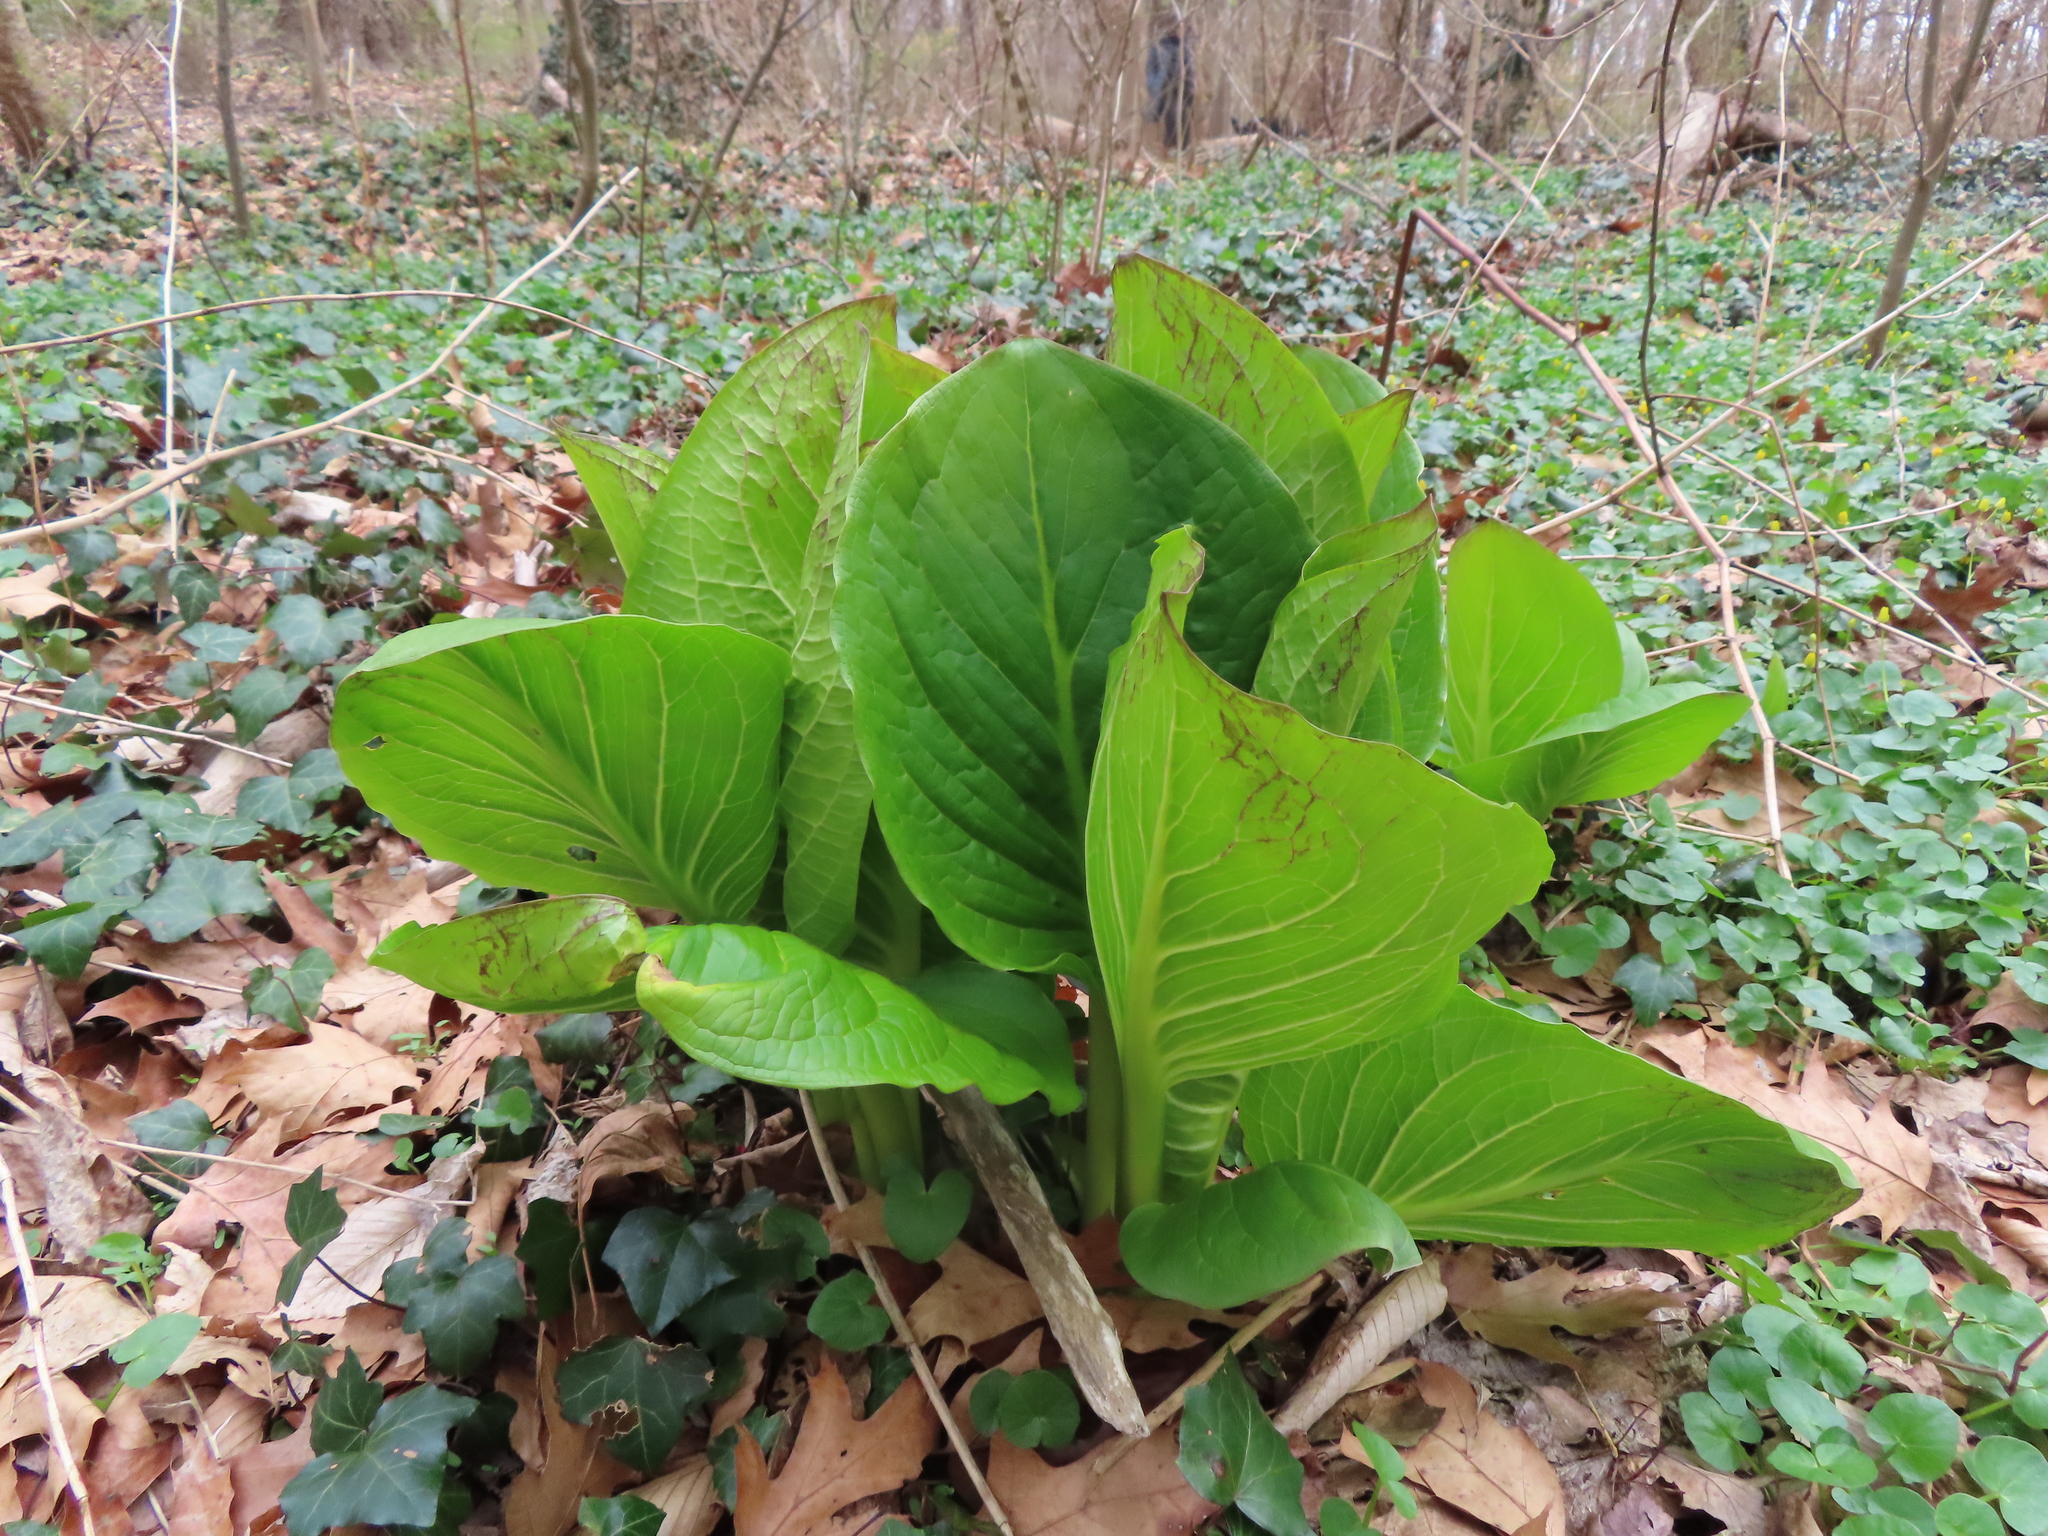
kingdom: Plantae
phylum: Tracheophyta
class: Liliopsida
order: Alismatales
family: Araceae
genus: Symplocarpus
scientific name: Symplocarpus foetidus
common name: Eastern skunk cabbage
